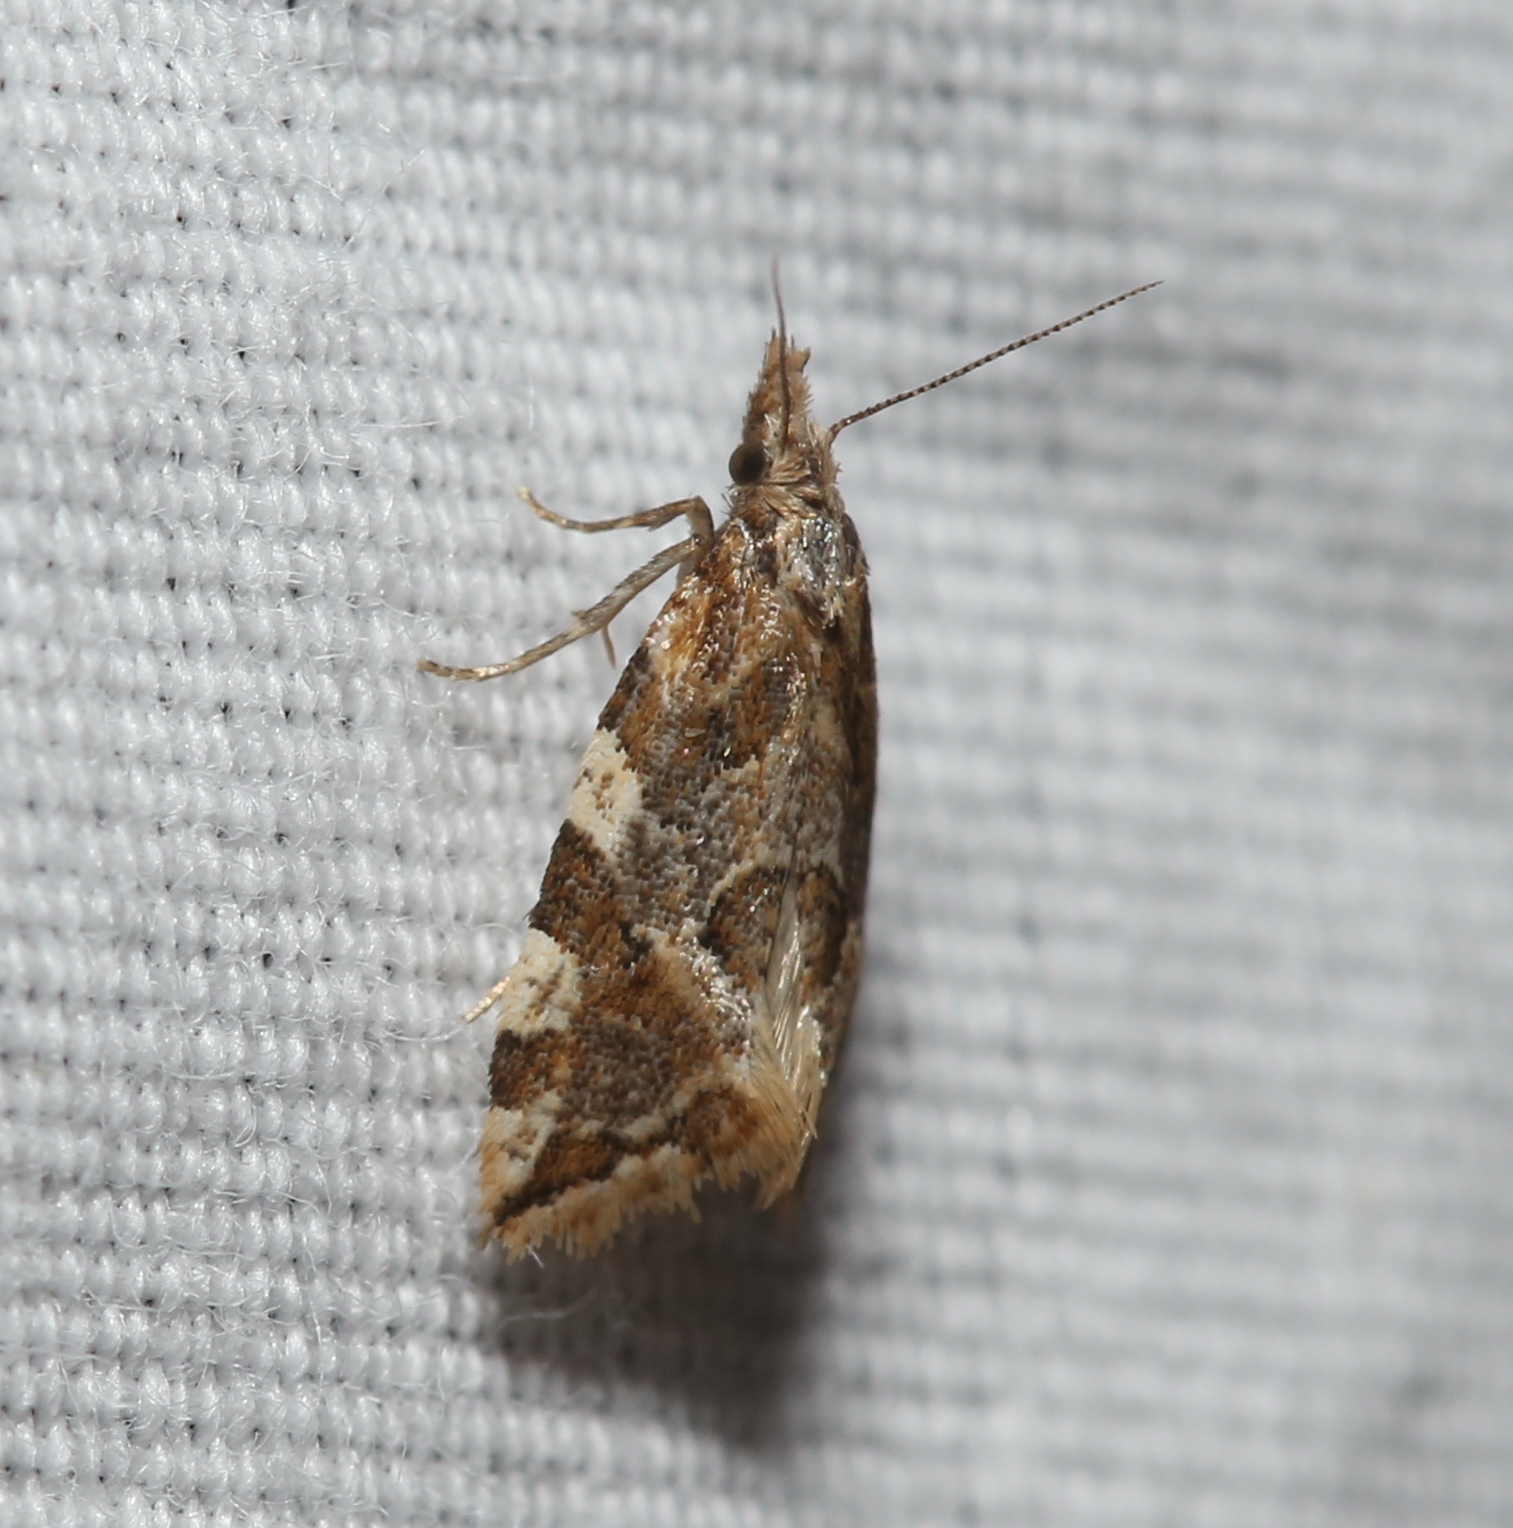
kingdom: Animalia
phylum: Arthropoda
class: Insecta
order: Lepidoptera
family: Tortricidae
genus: Aethes
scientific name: Aethes sexdentata
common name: Six-toothed aethes
